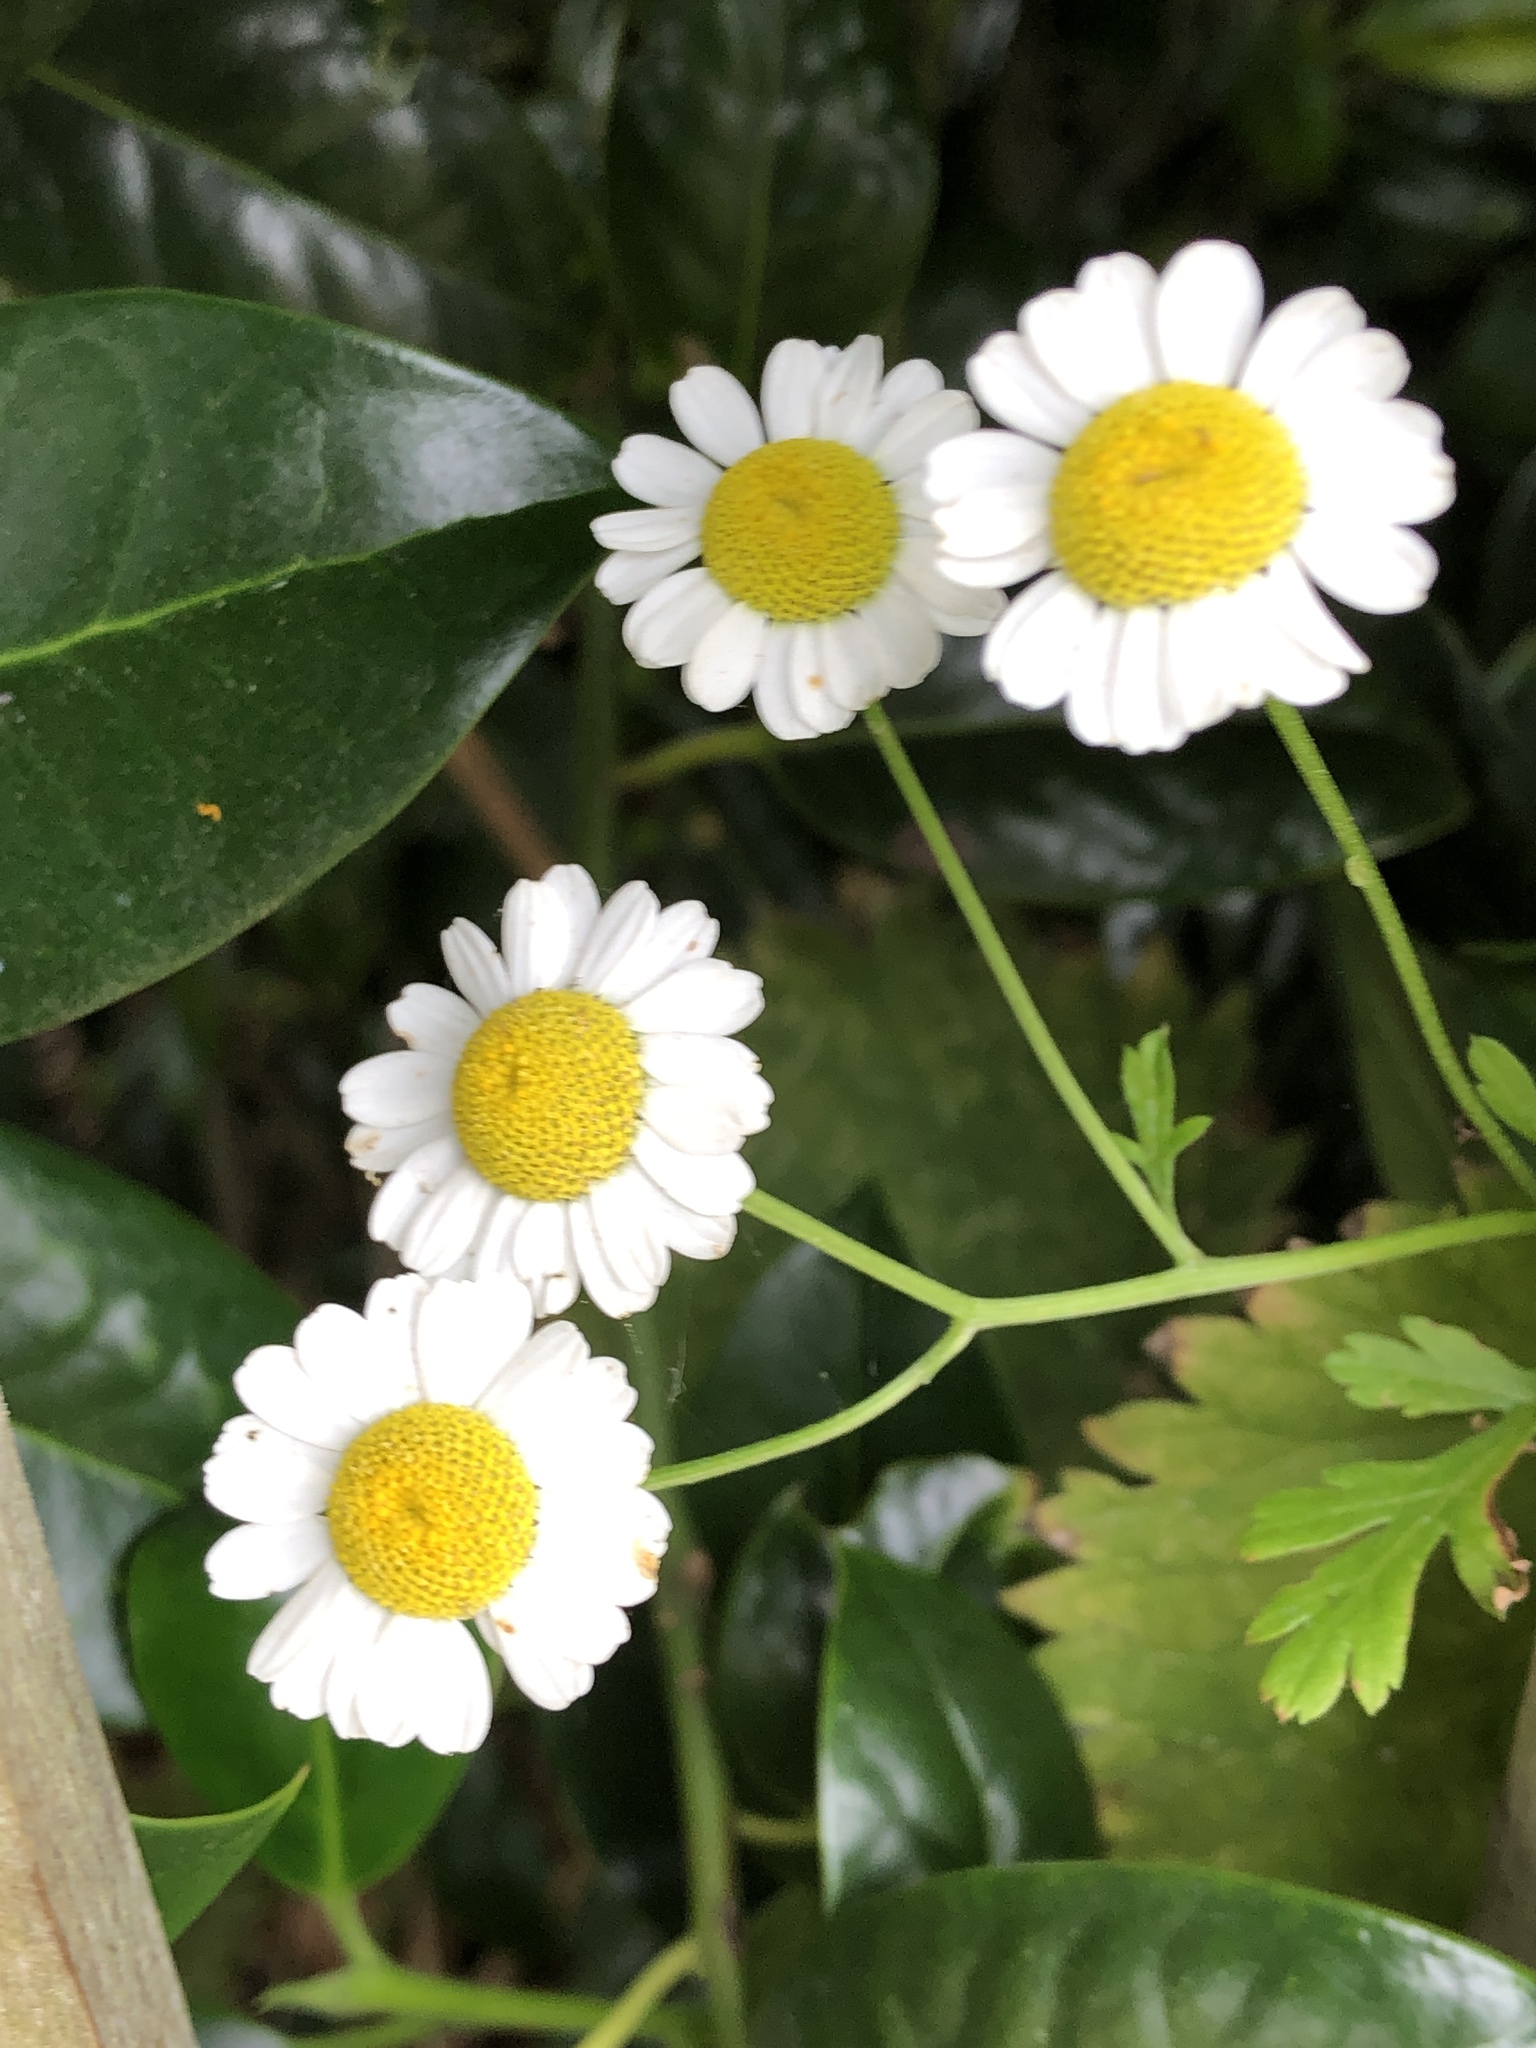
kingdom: Plantae
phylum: Tracheophyta
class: Magnoliopsida
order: Asterales
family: Asteraceae
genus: Tanacetum
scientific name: Tanacetum parthenium
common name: Feverfew
